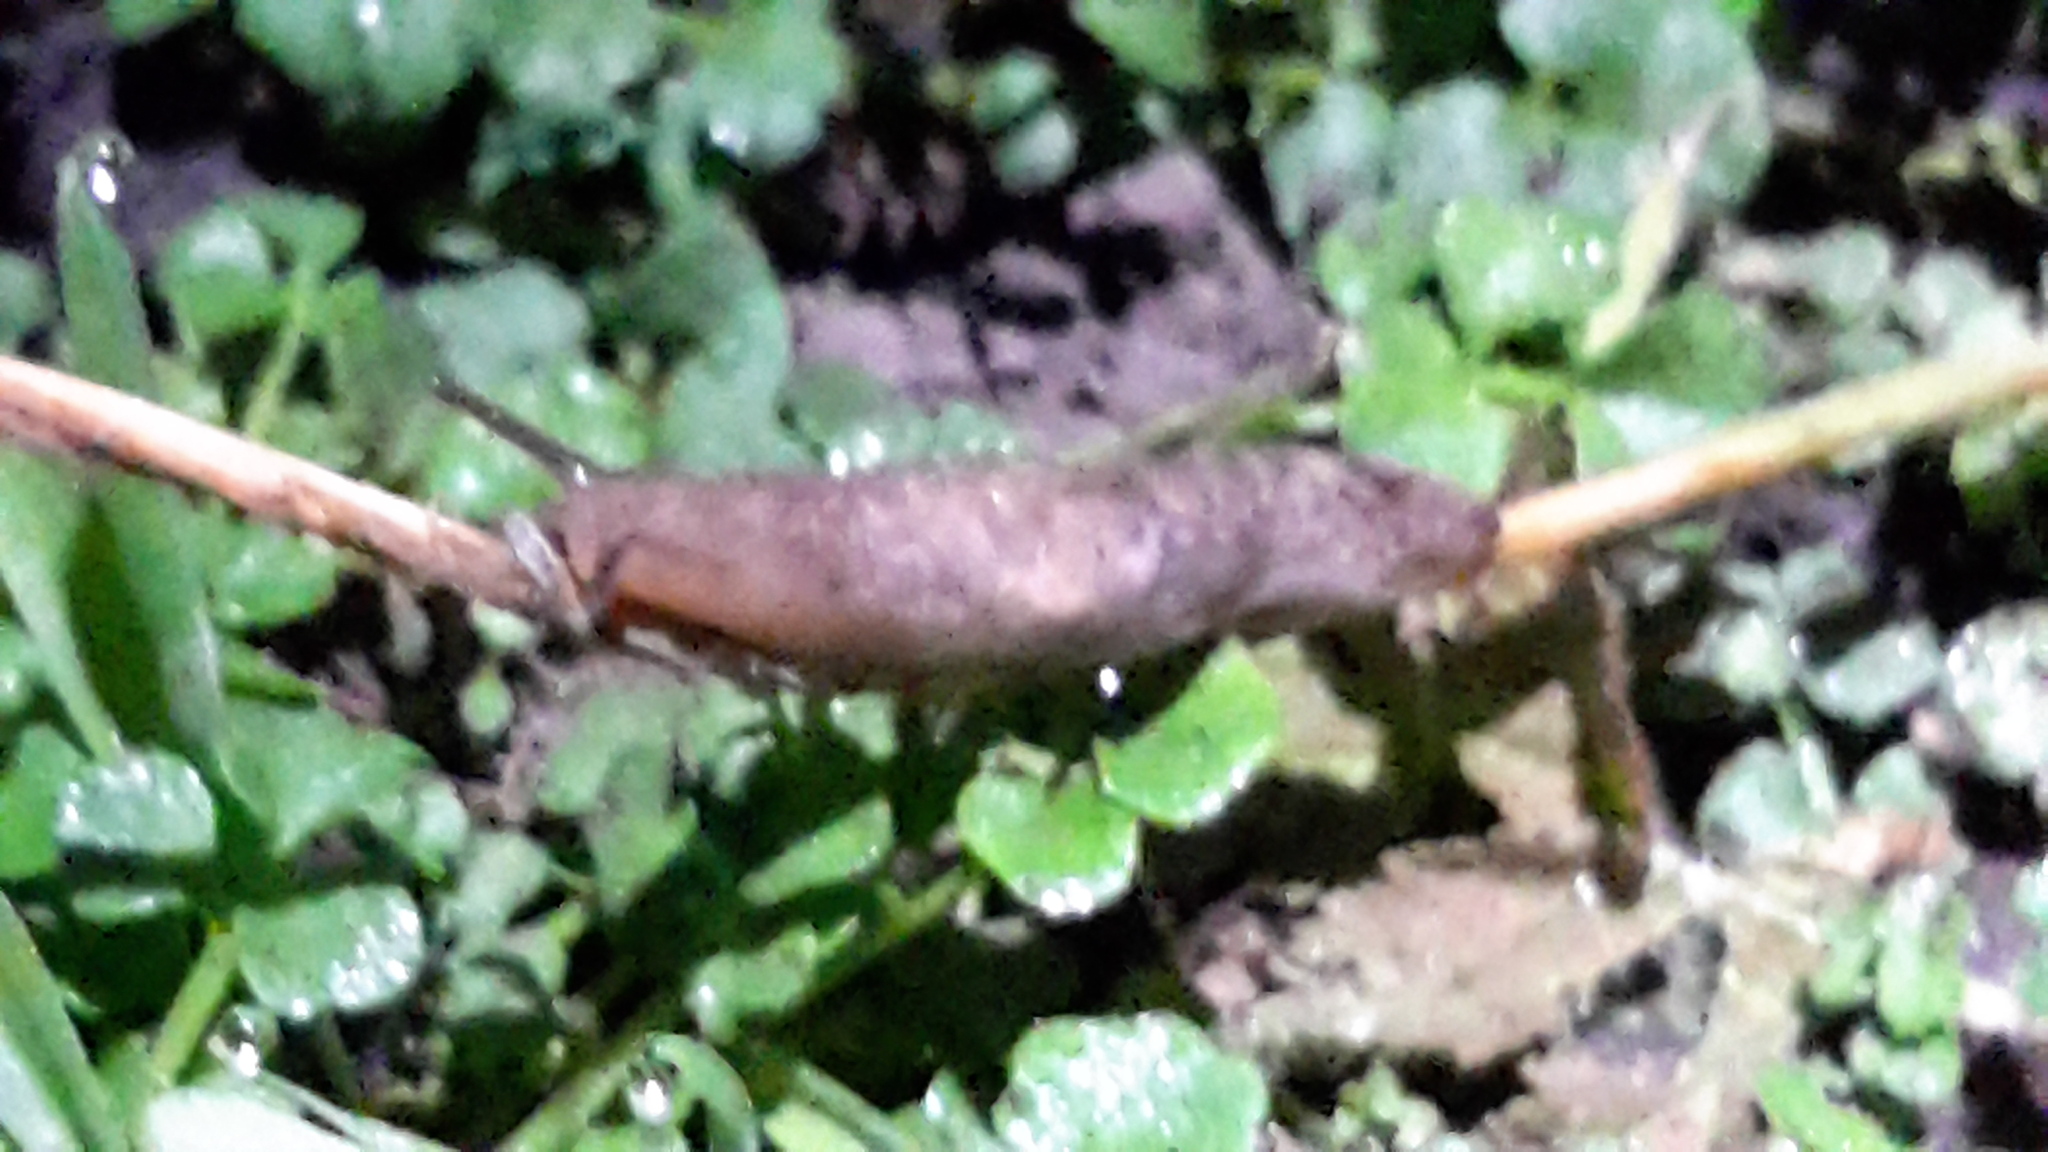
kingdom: Animalia
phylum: Mollusca
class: Gastropoda
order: Stylommatophora
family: Agriolimacidae
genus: Deroceras
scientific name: Deroceras reticulatum
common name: Gray field slug
